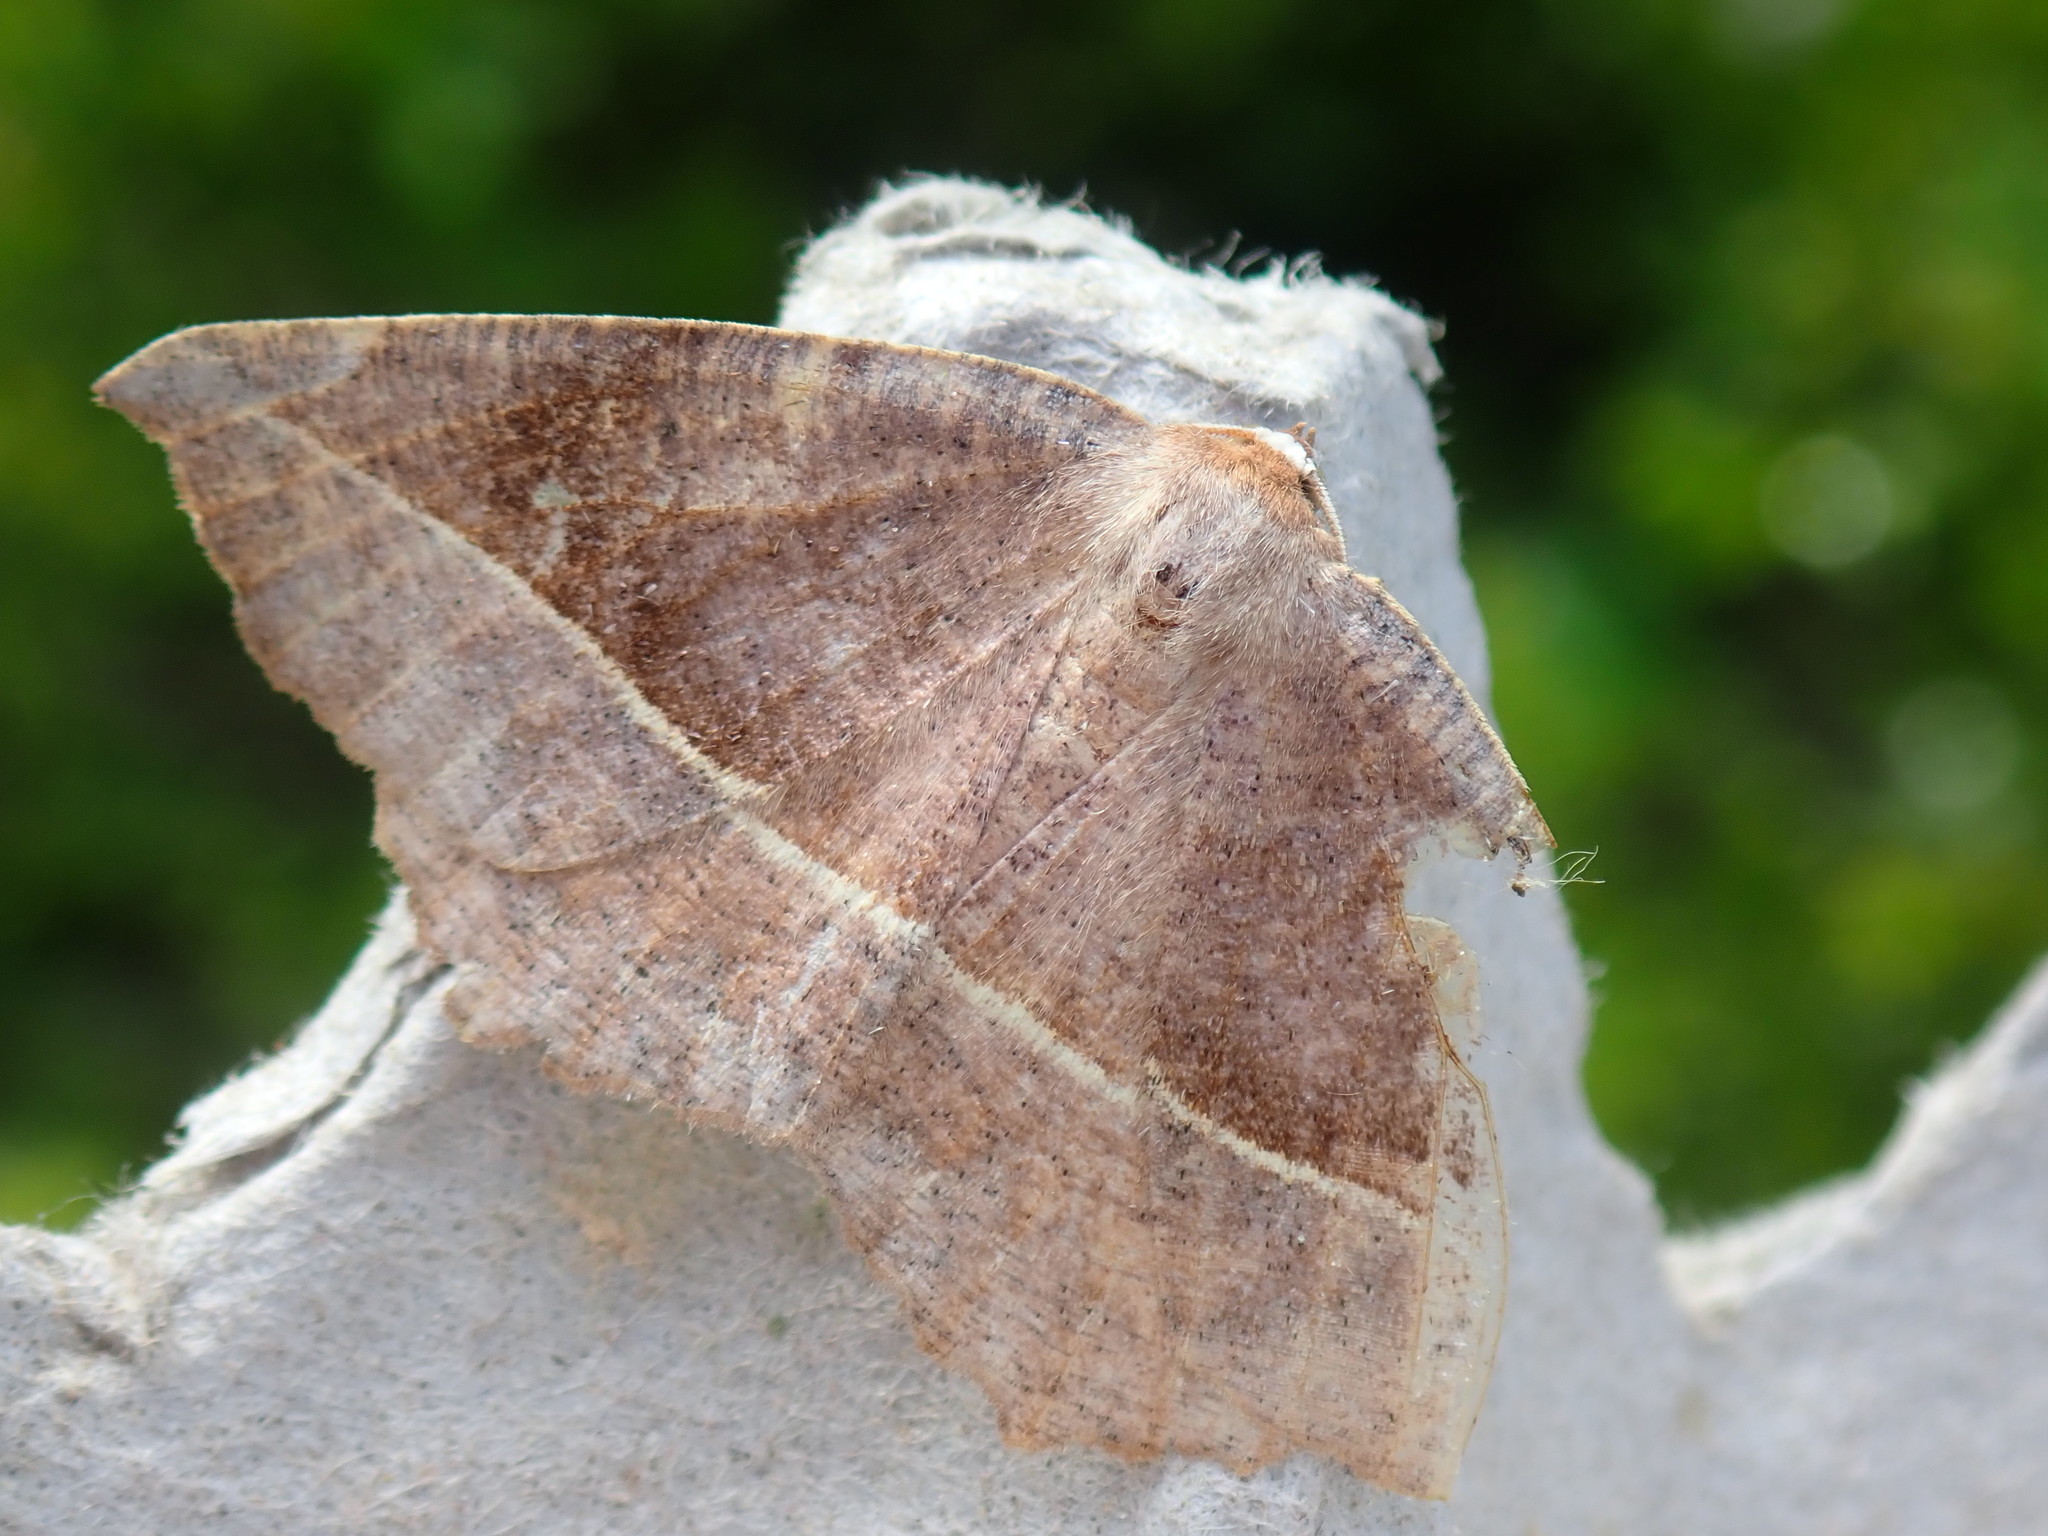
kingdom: Animalia
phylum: Arthropoda
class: Insecta
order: Lepidoptera
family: Geometridae
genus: Eutrapela
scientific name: Eutrapela clemataria
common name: Curved-toothed geometer
